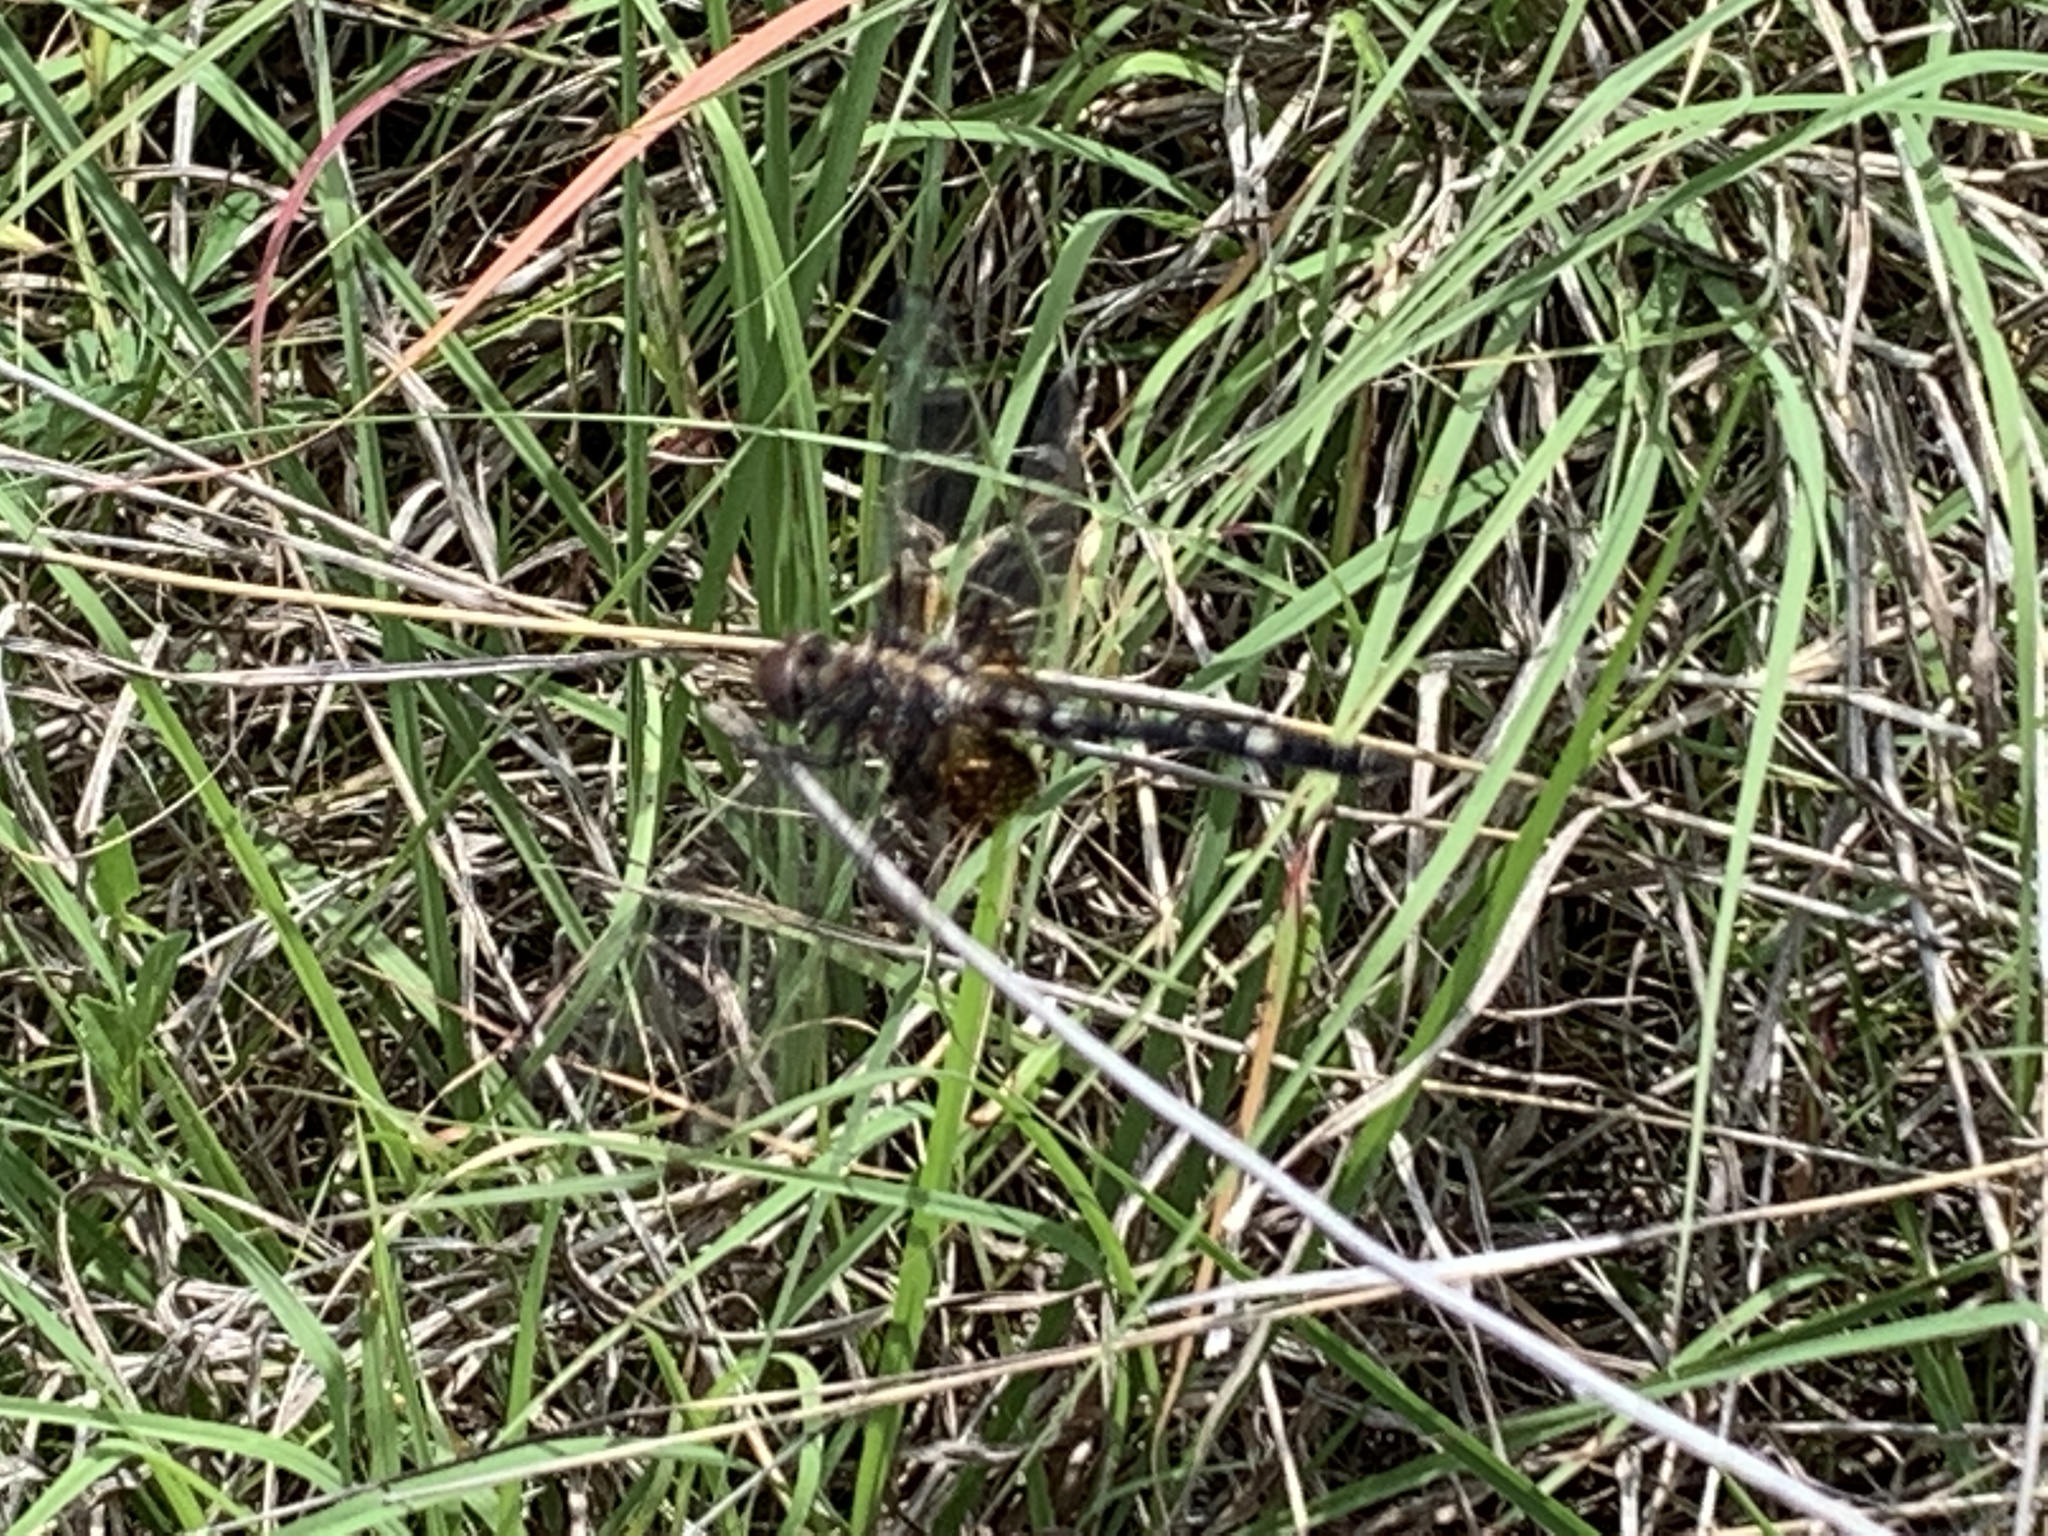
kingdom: Animalia
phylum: Arthropoda
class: Insecta
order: Odonata
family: Libellulidae
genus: Dythemis
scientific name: Dythemis fugax
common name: Checkered setwing
